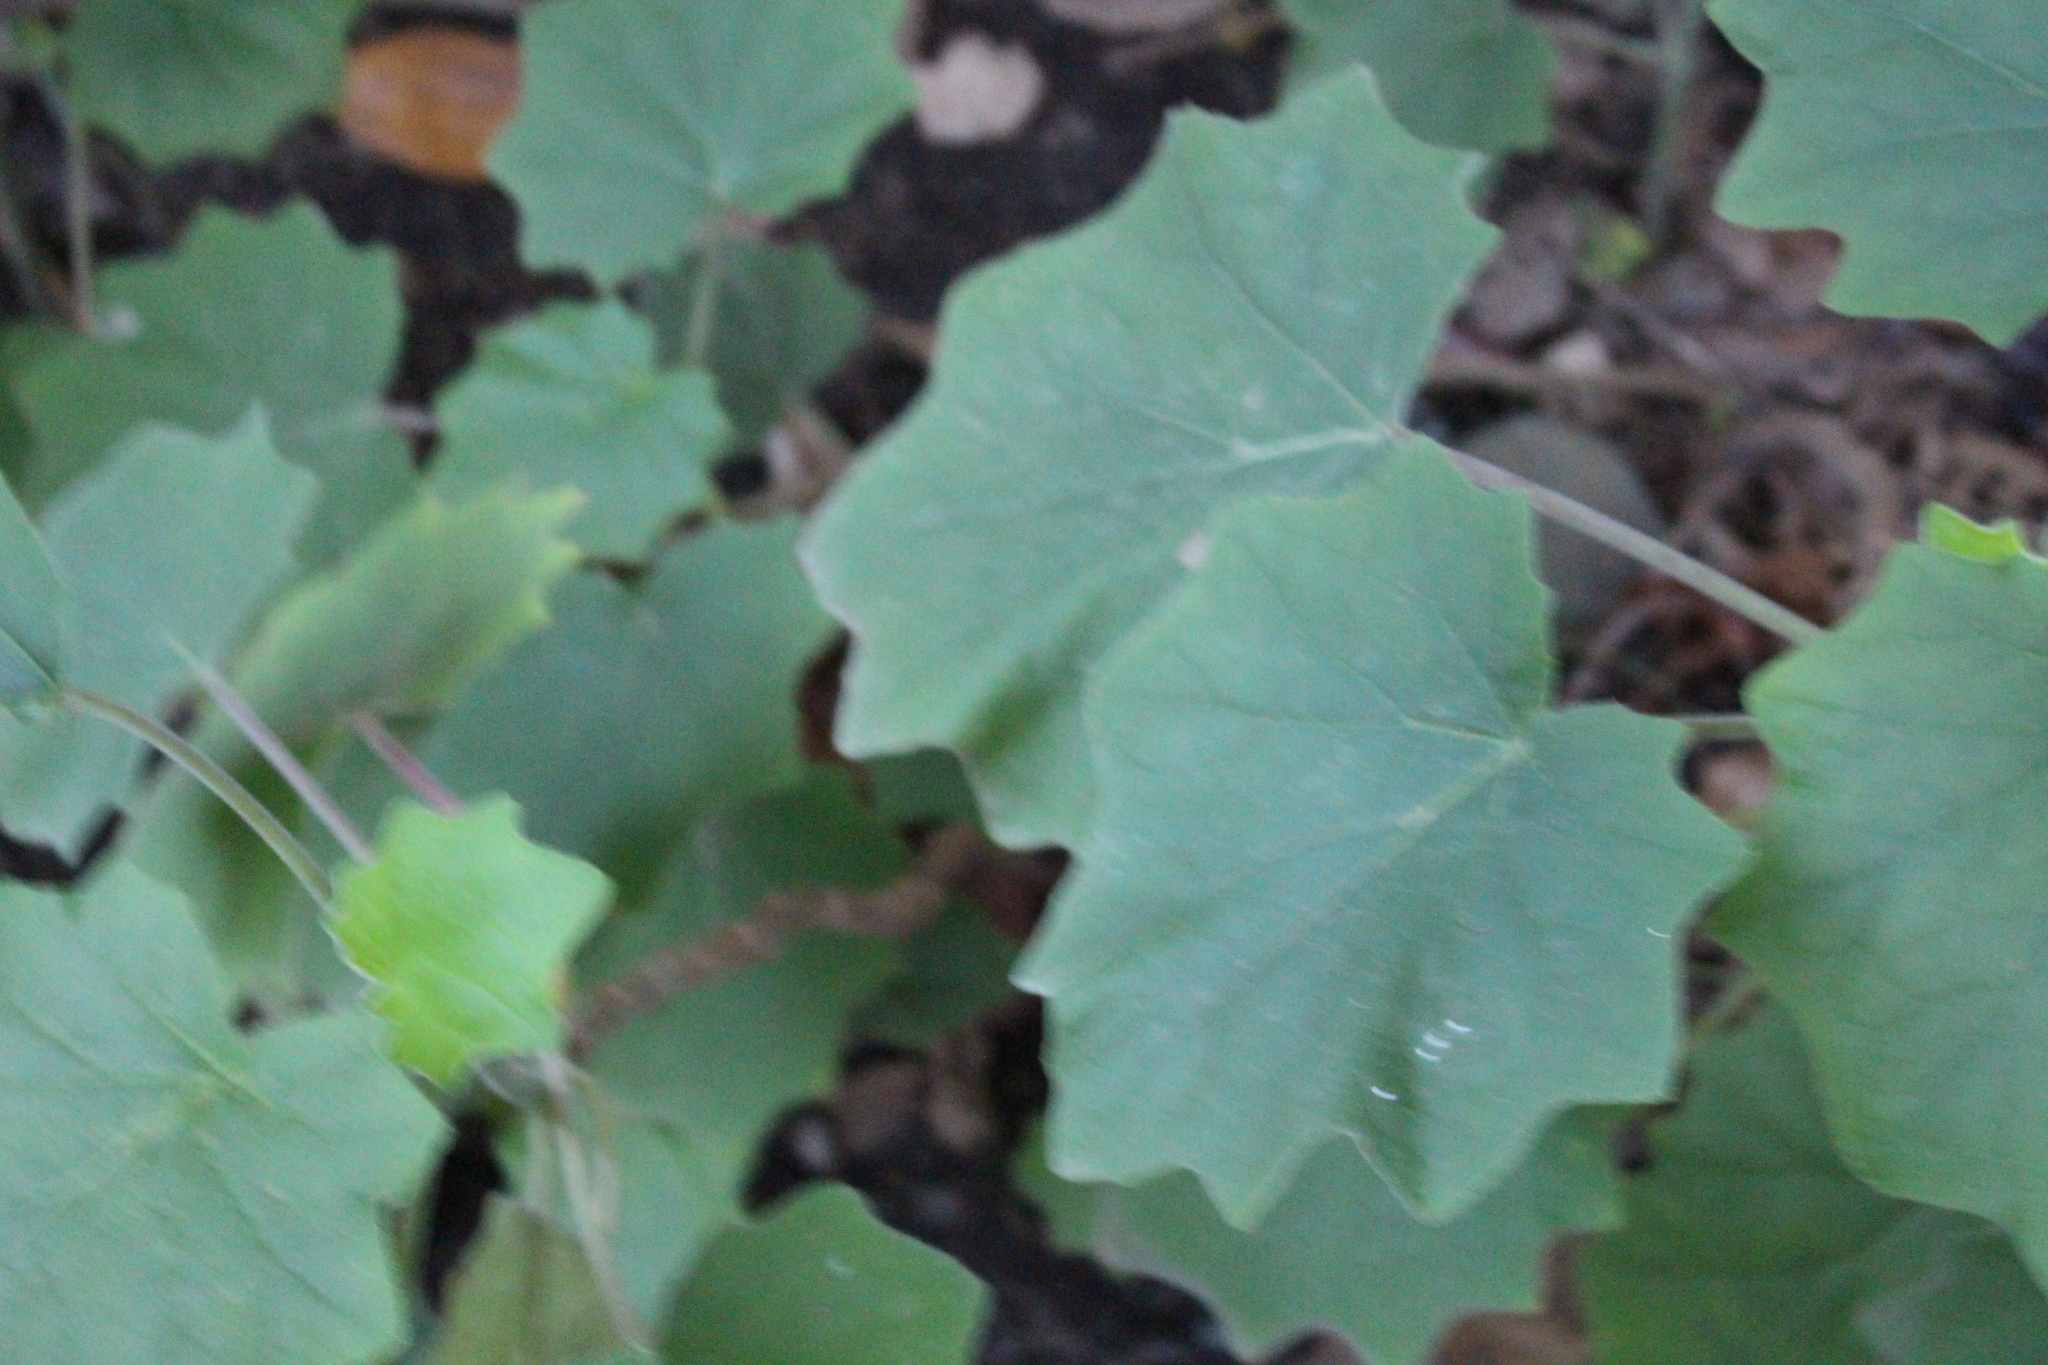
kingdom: Plantae
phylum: Tracheophyta
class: Magnoliopsida
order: Asterales
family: Asteraceae
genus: Roldana
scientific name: Roldana petasitis
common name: California-geranium
